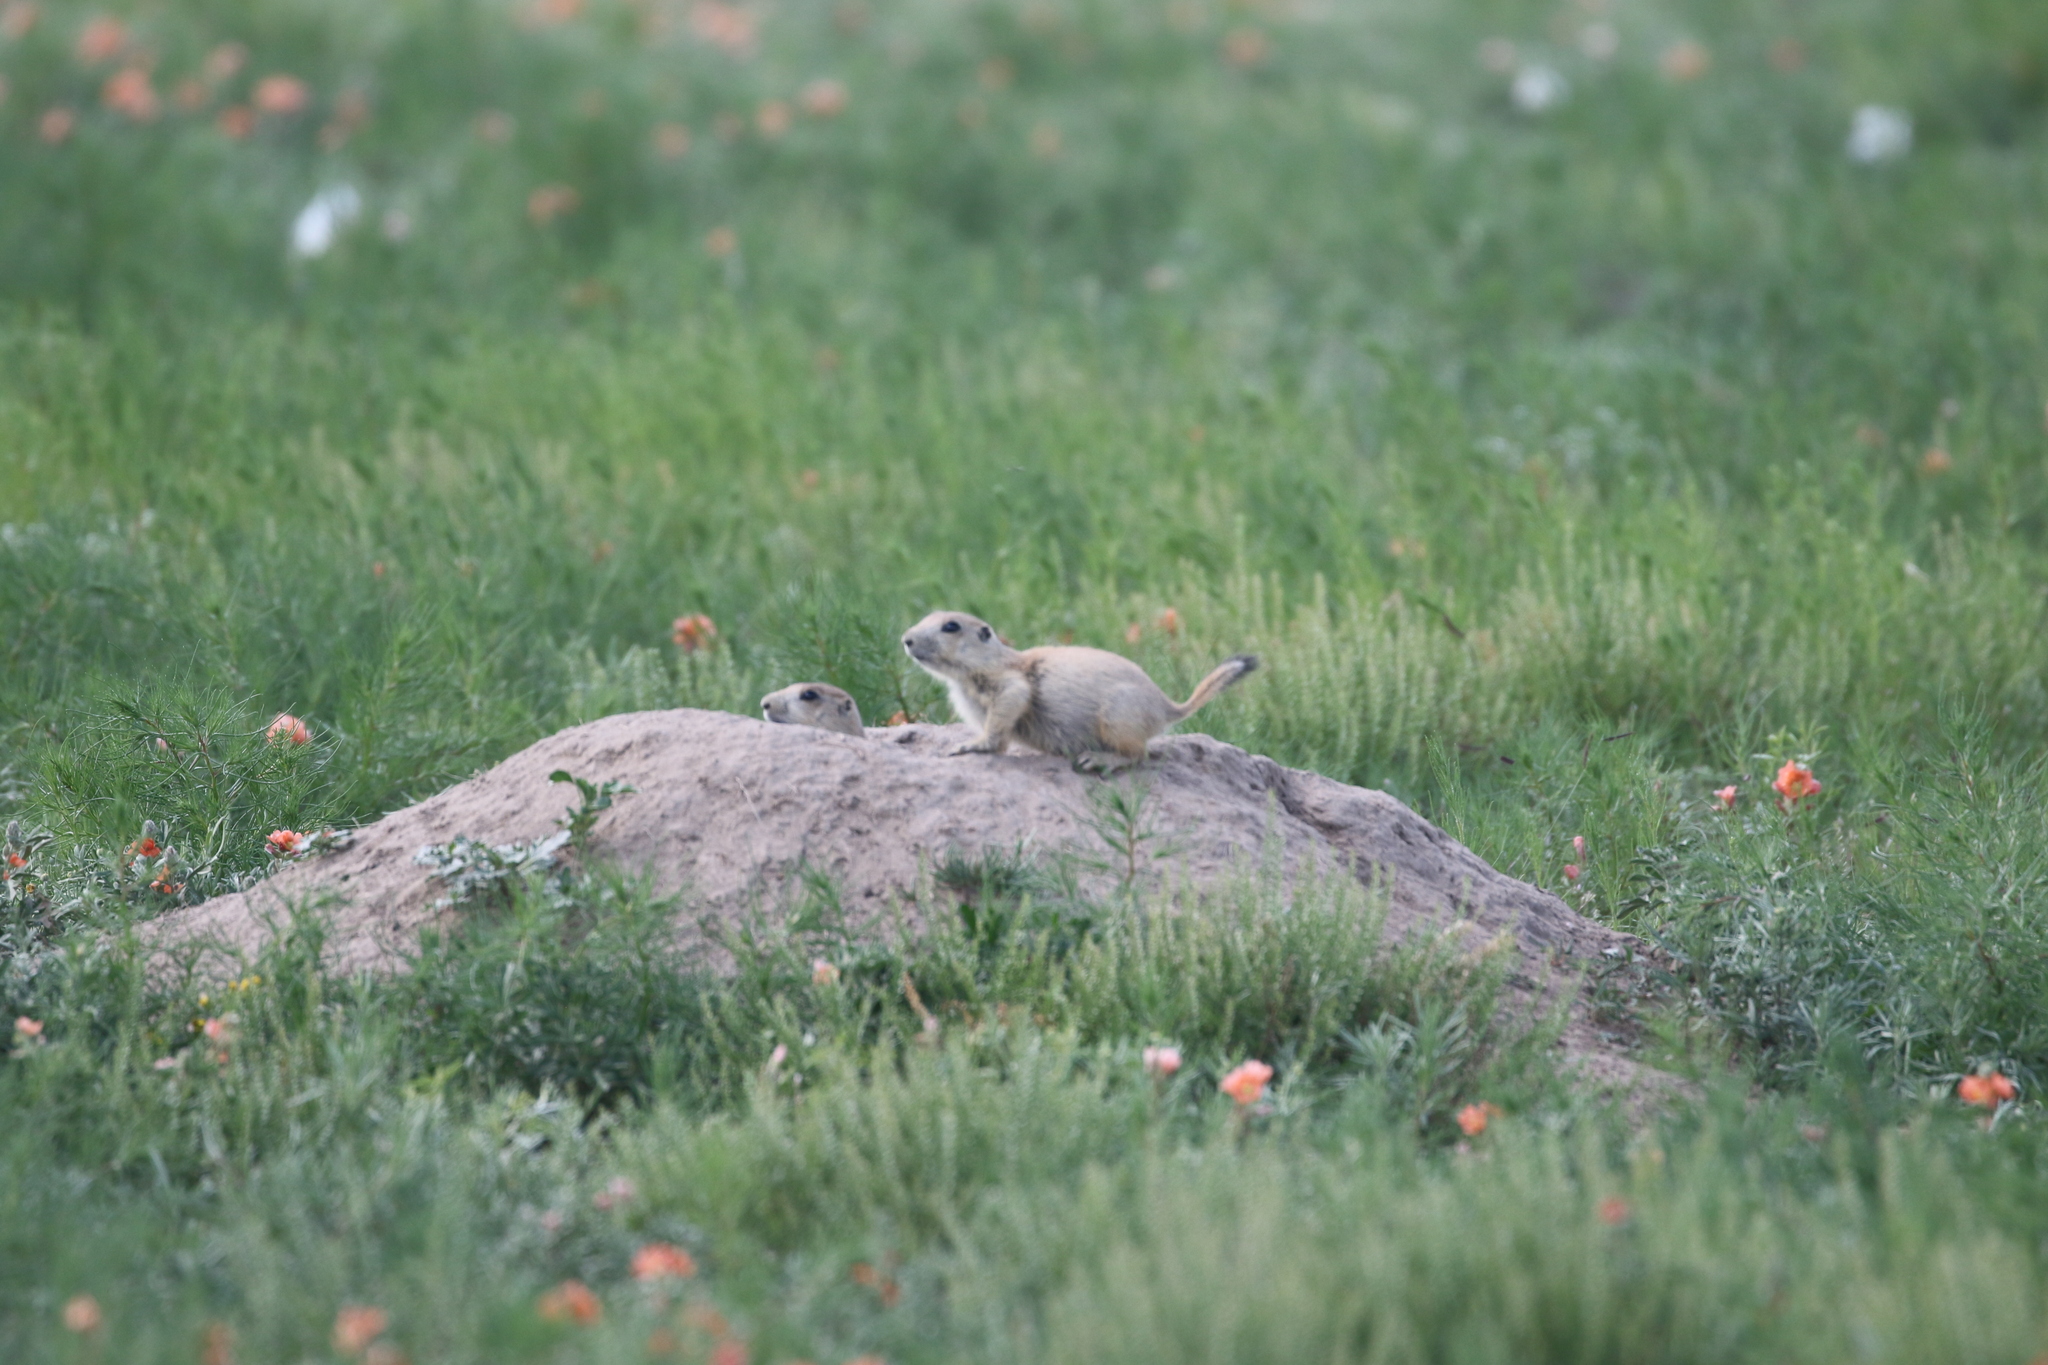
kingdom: Animalia
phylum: Chordata
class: Mammalia
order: Rodentia
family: Sciuridae
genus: Cynomys
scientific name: Cynomys ludovicianus
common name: Black-tailed prairie dog
